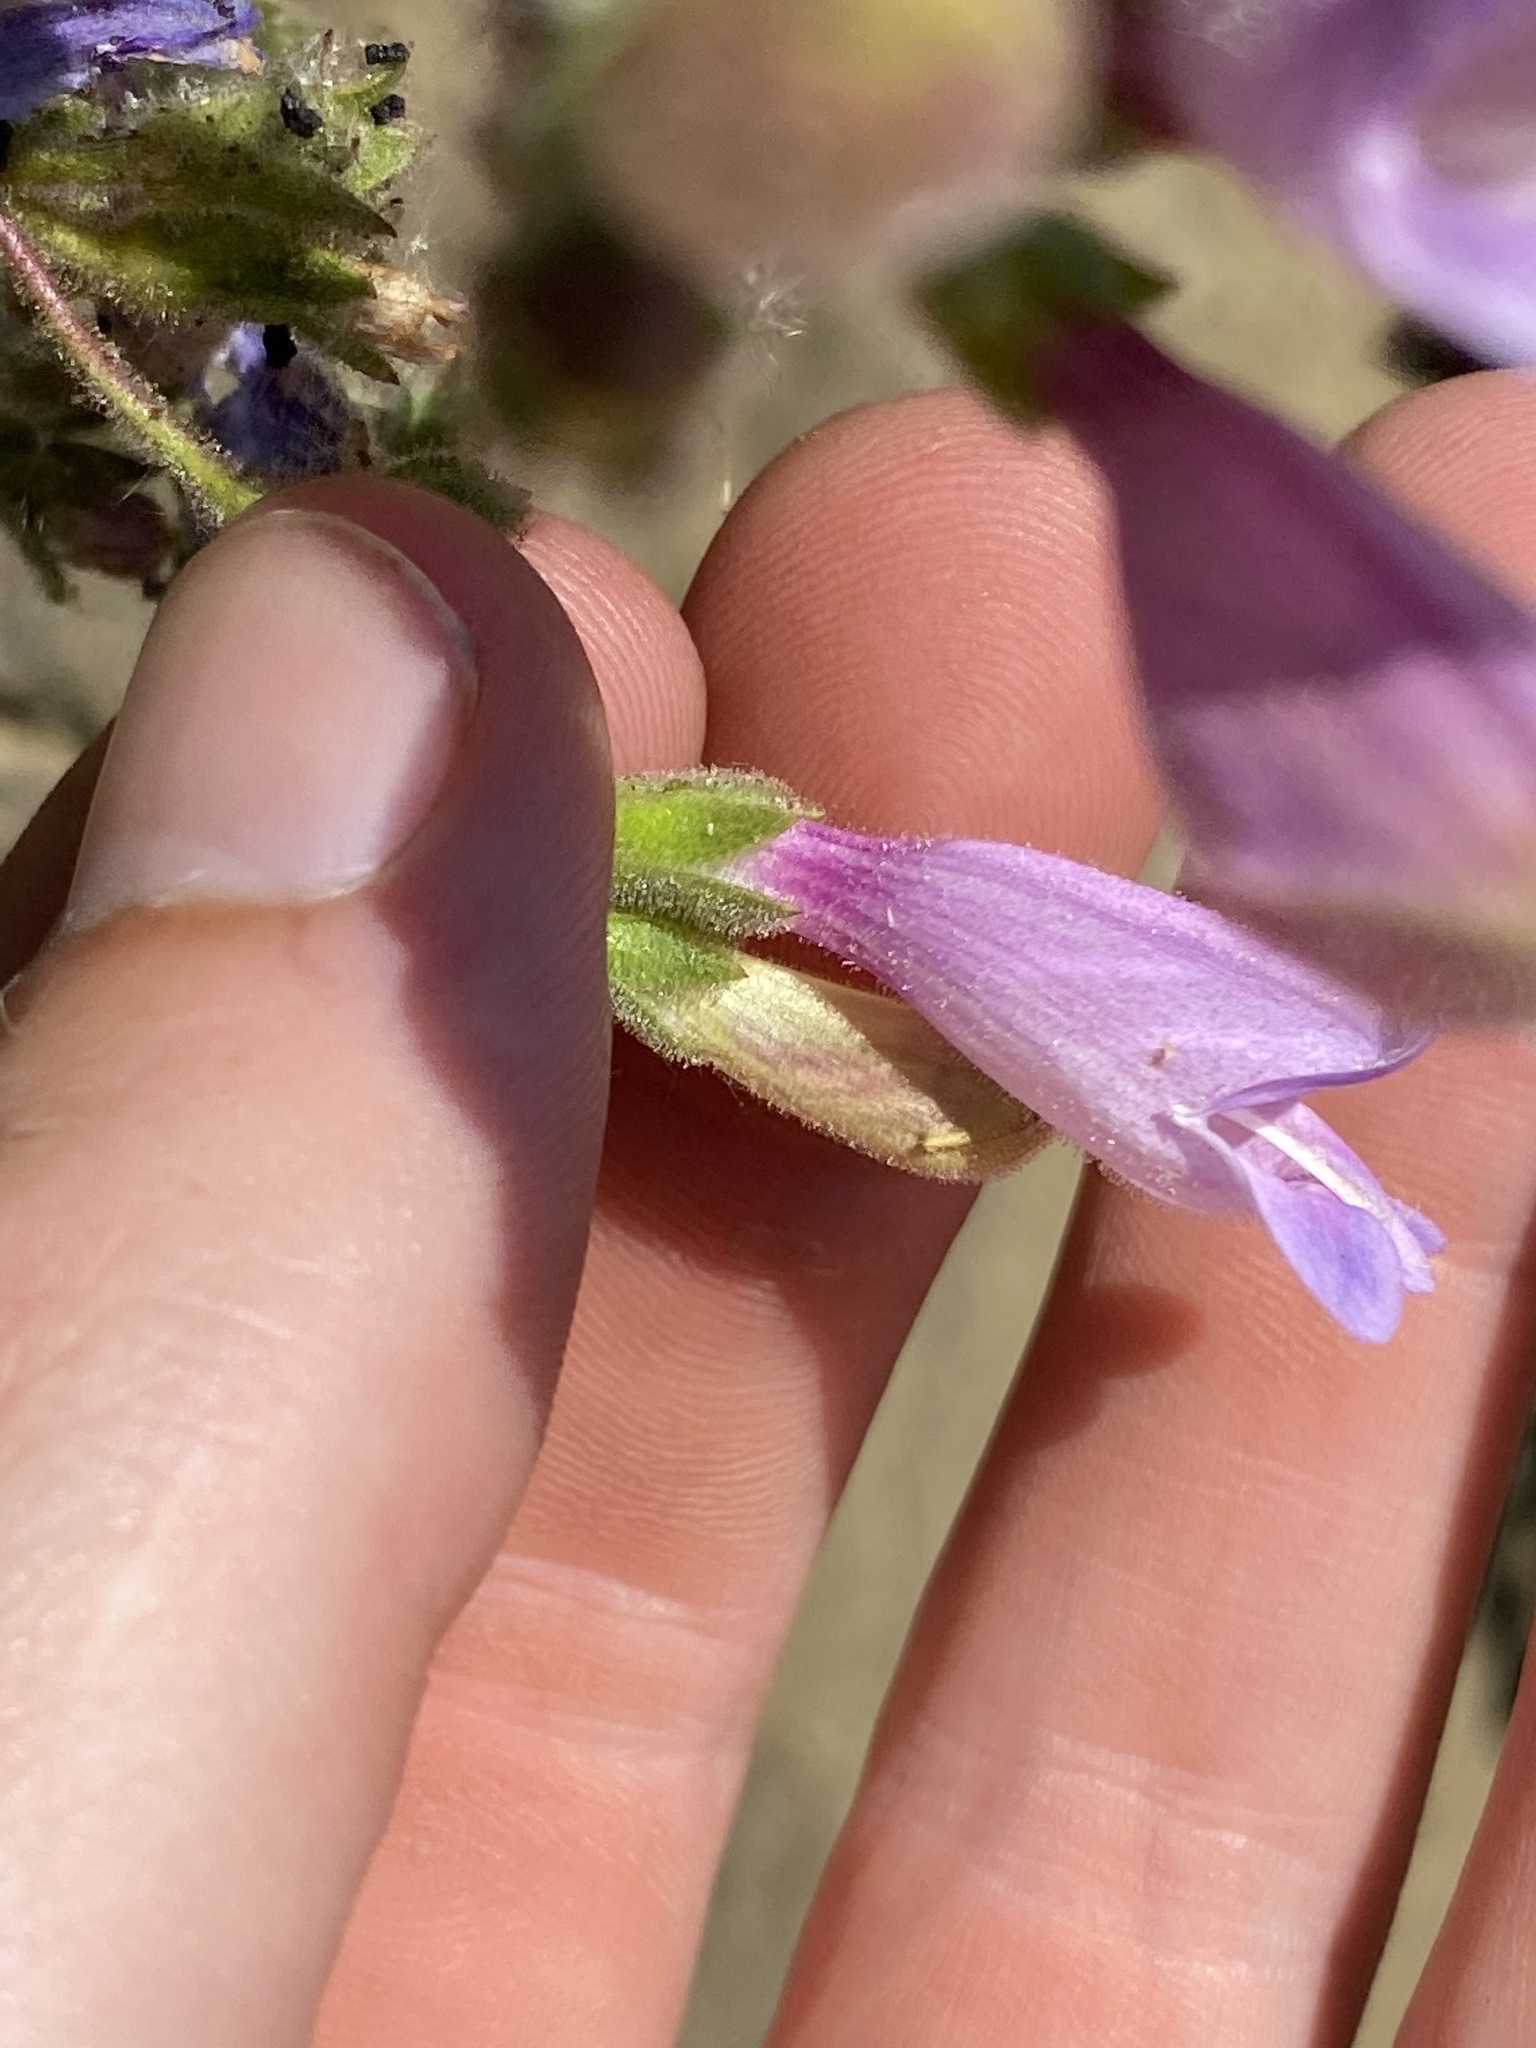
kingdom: Plantae
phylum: Tracheophyta
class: Magnoliopsida
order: Lamiales
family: Plantaginaceae
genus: Penstemon
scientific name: Penstemon richardsonii
